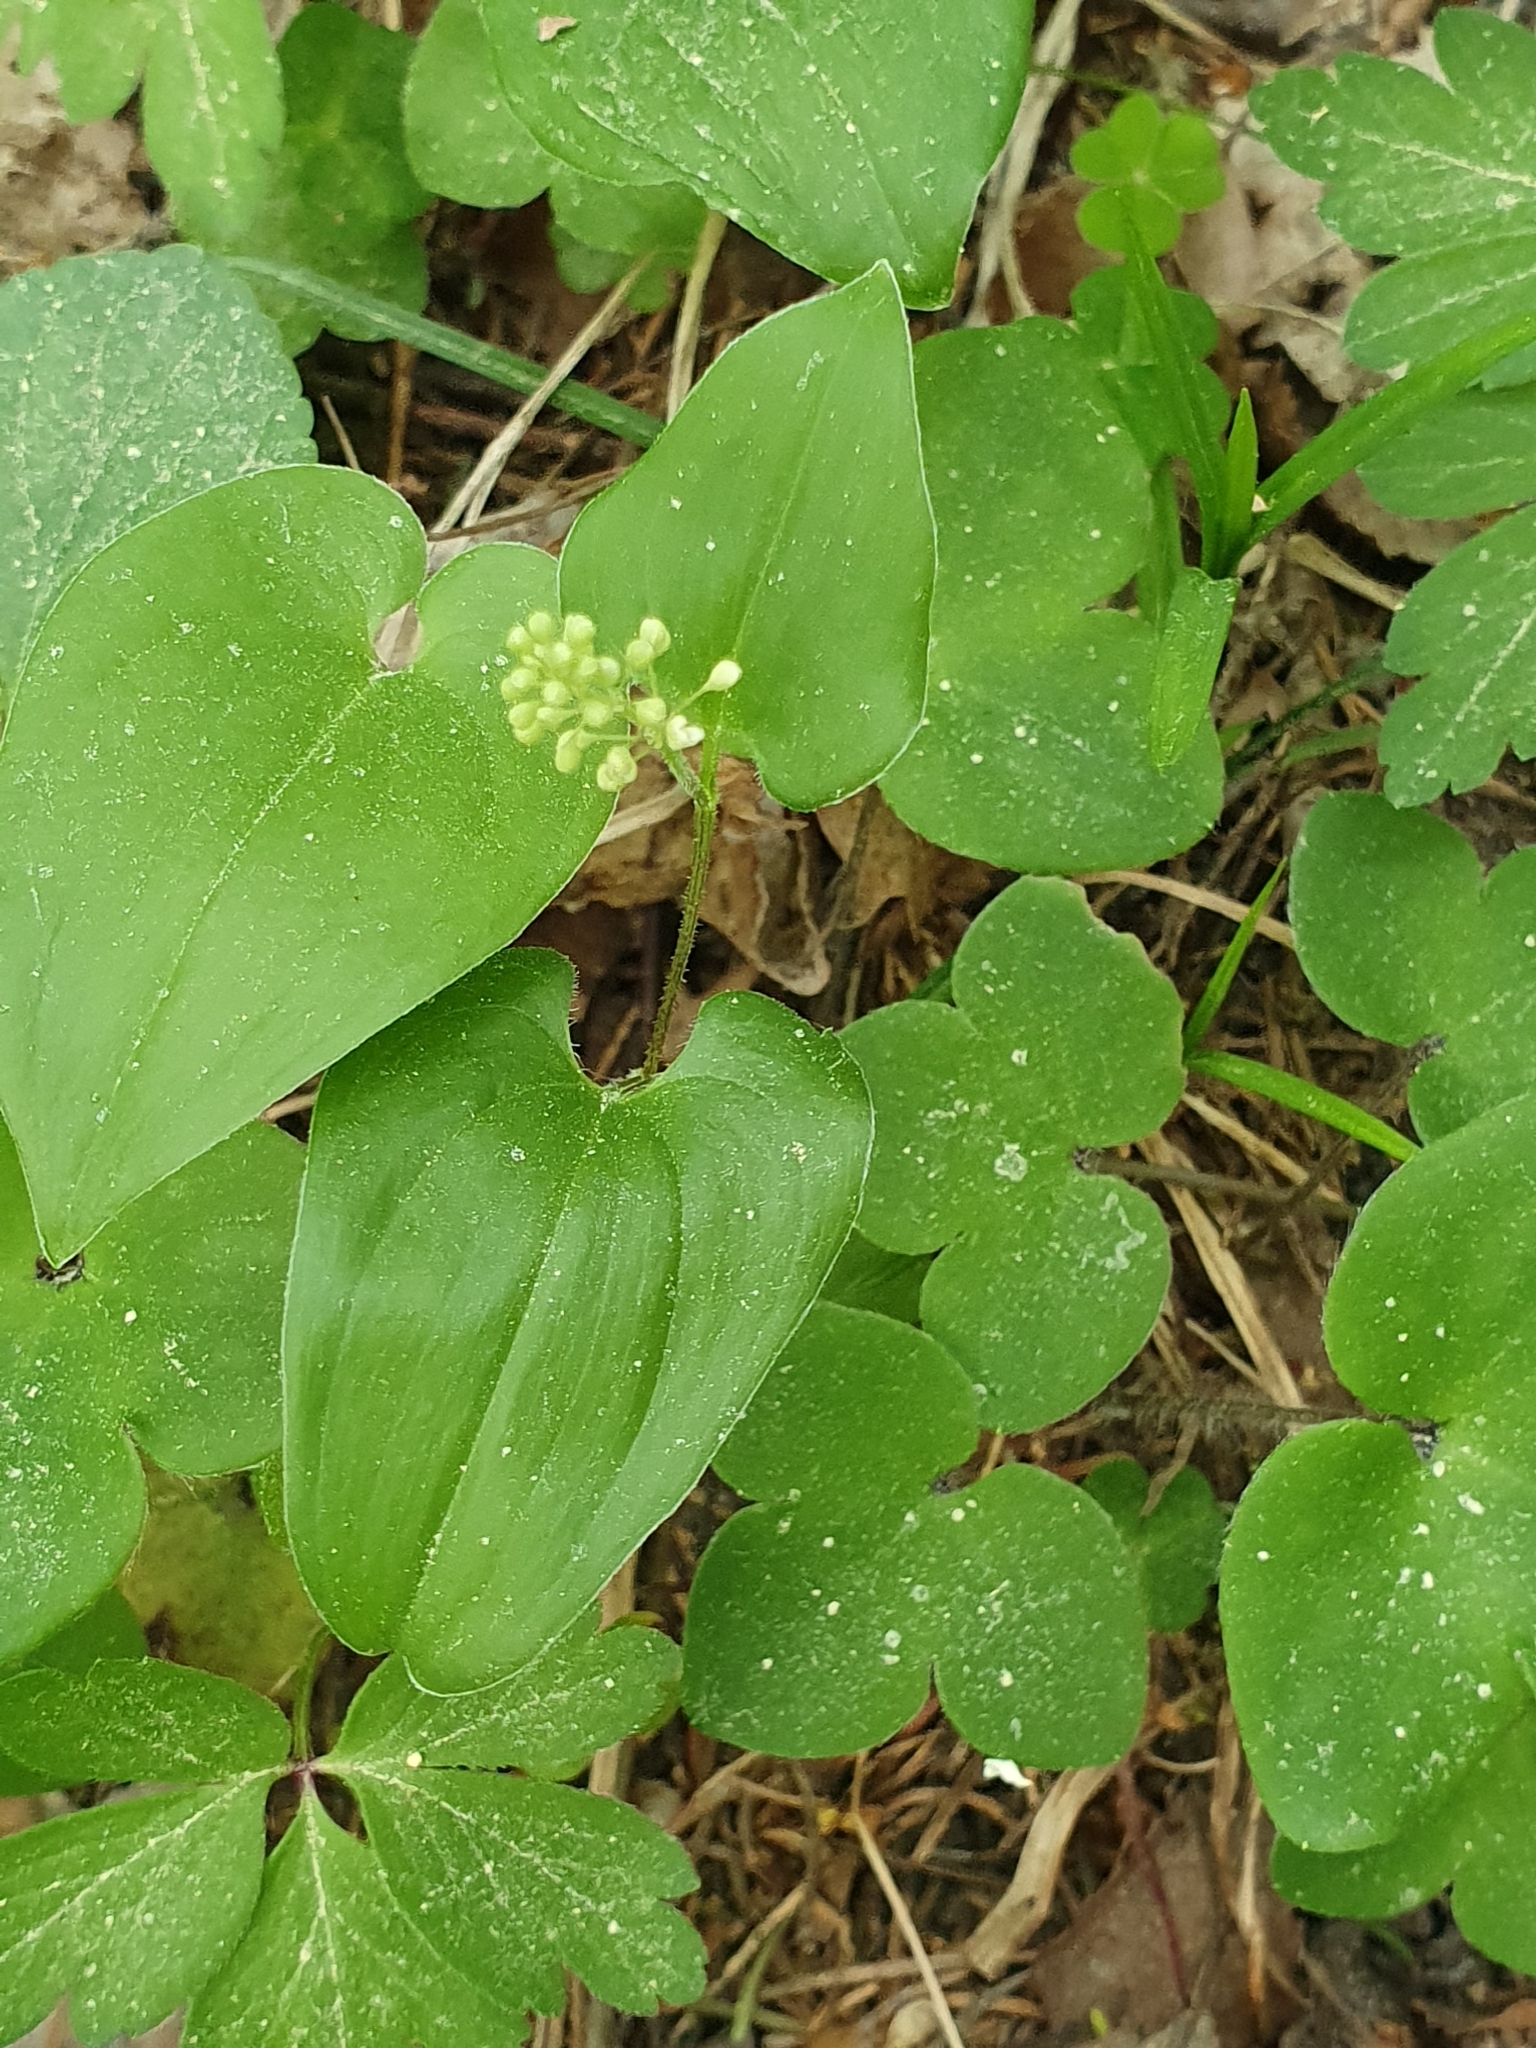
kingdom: Plantae
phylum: Tracheophyta
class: Liliopsida
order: Asparagales
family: Asparagaceae
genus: Maianthemum
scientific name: Maianthemum bifolium
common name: May lily
